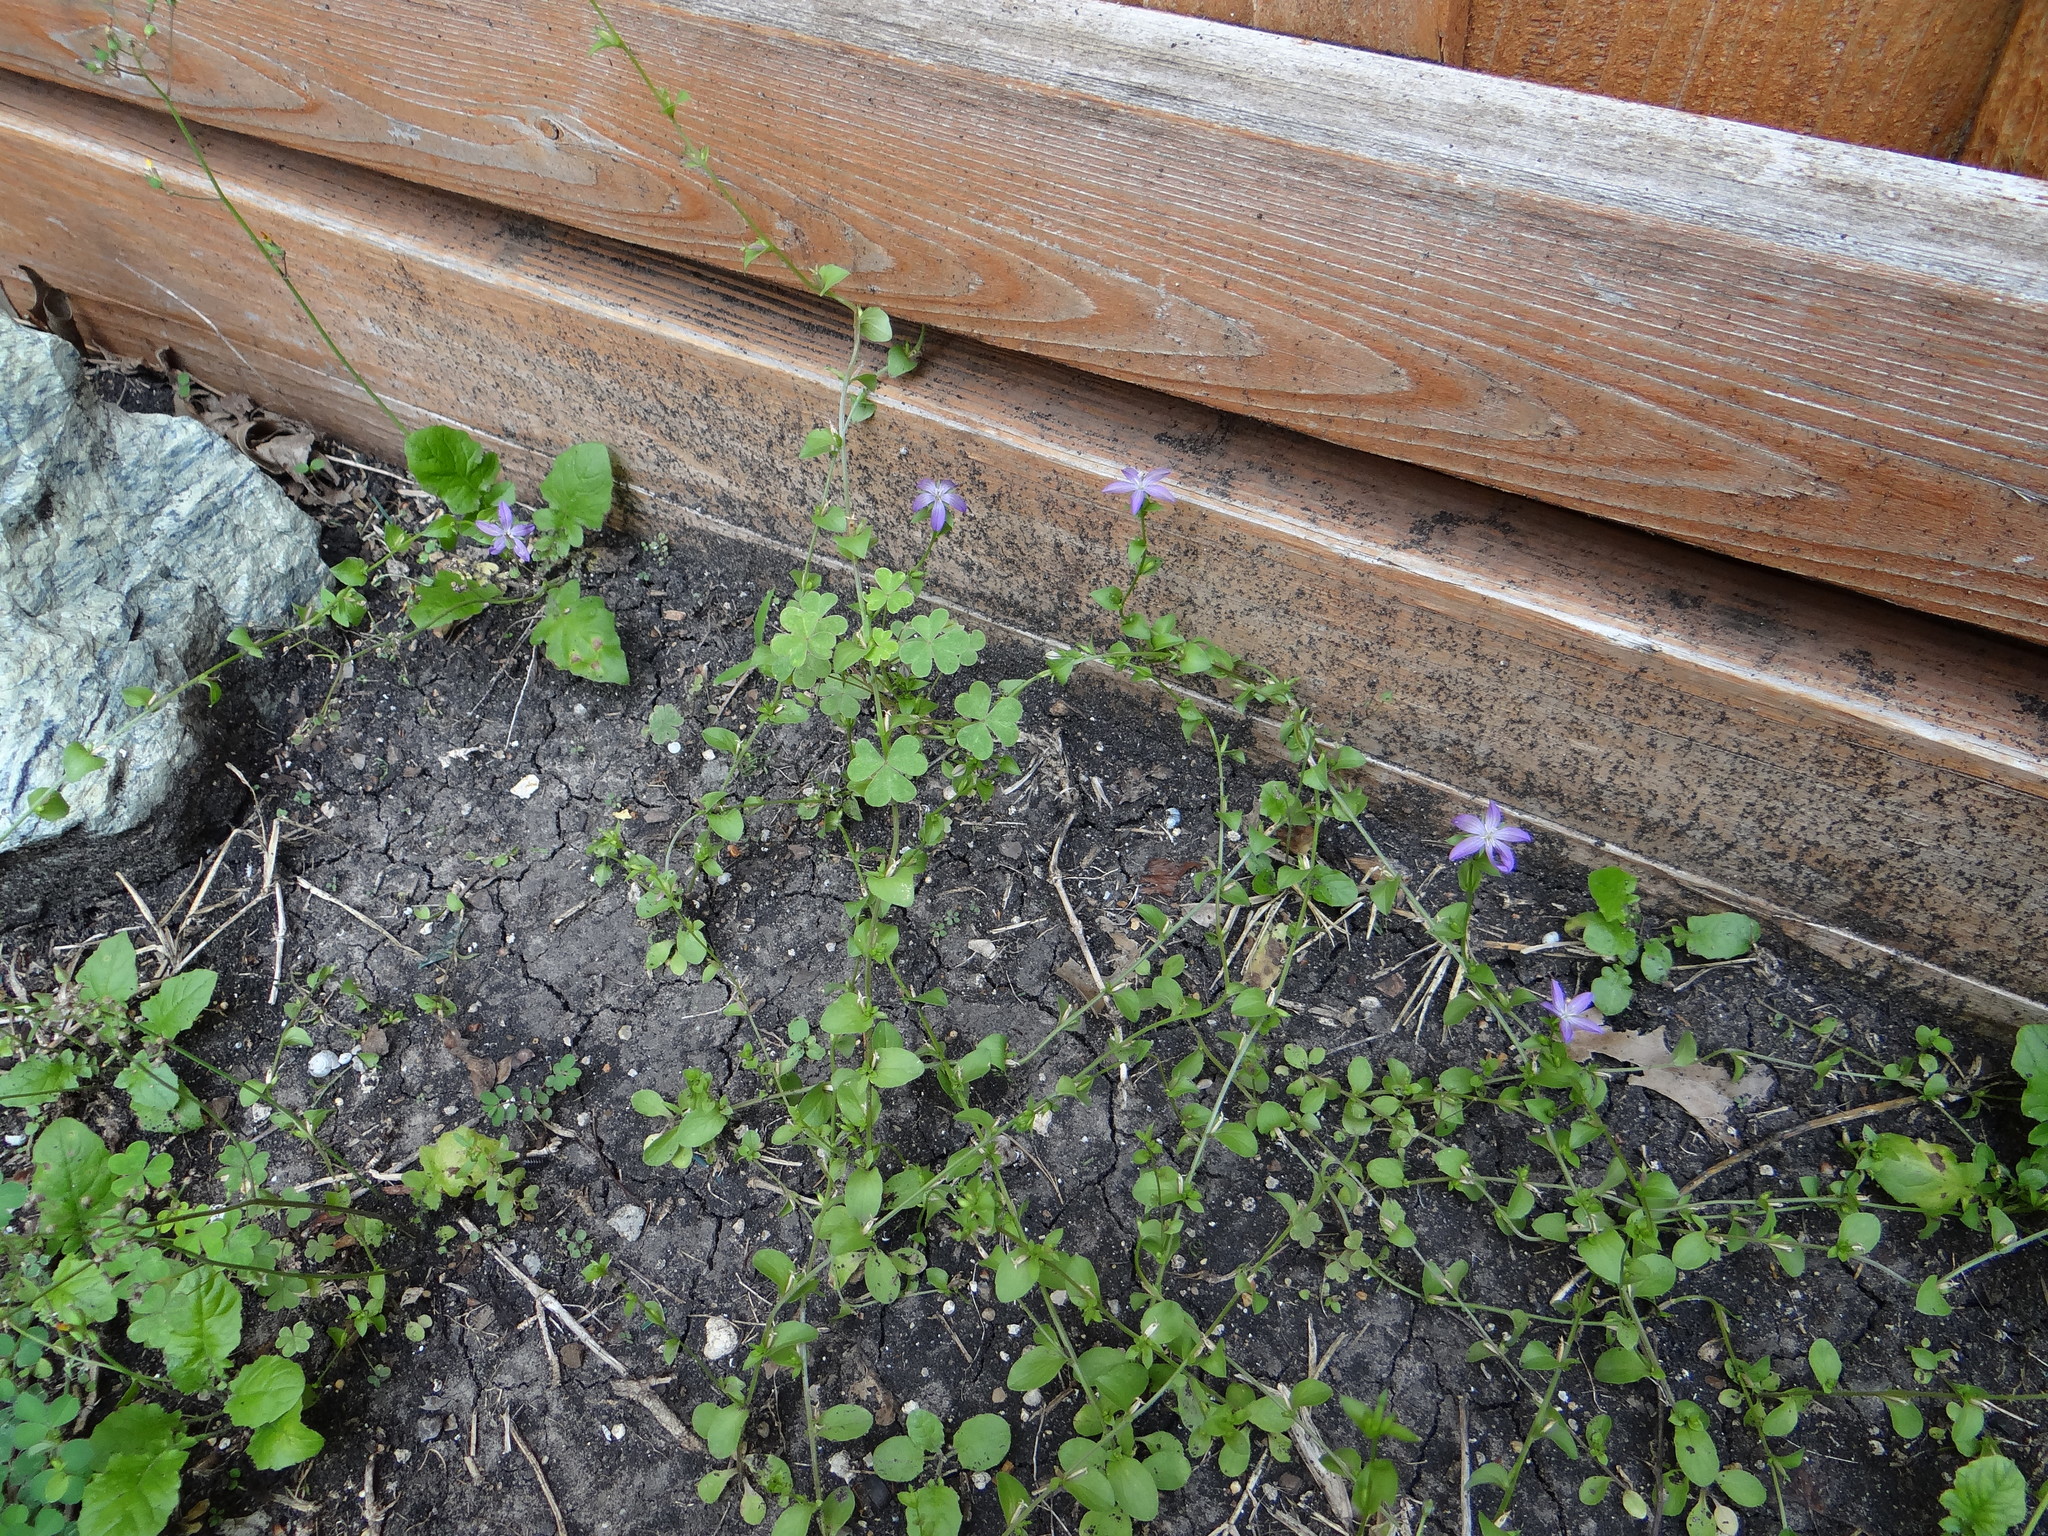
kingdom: Plantae
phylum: Tracheophyta
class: Magnoliopsida
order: Asterales
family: Campanulaceae
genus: Triodanis
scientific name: Triodanis biflora
